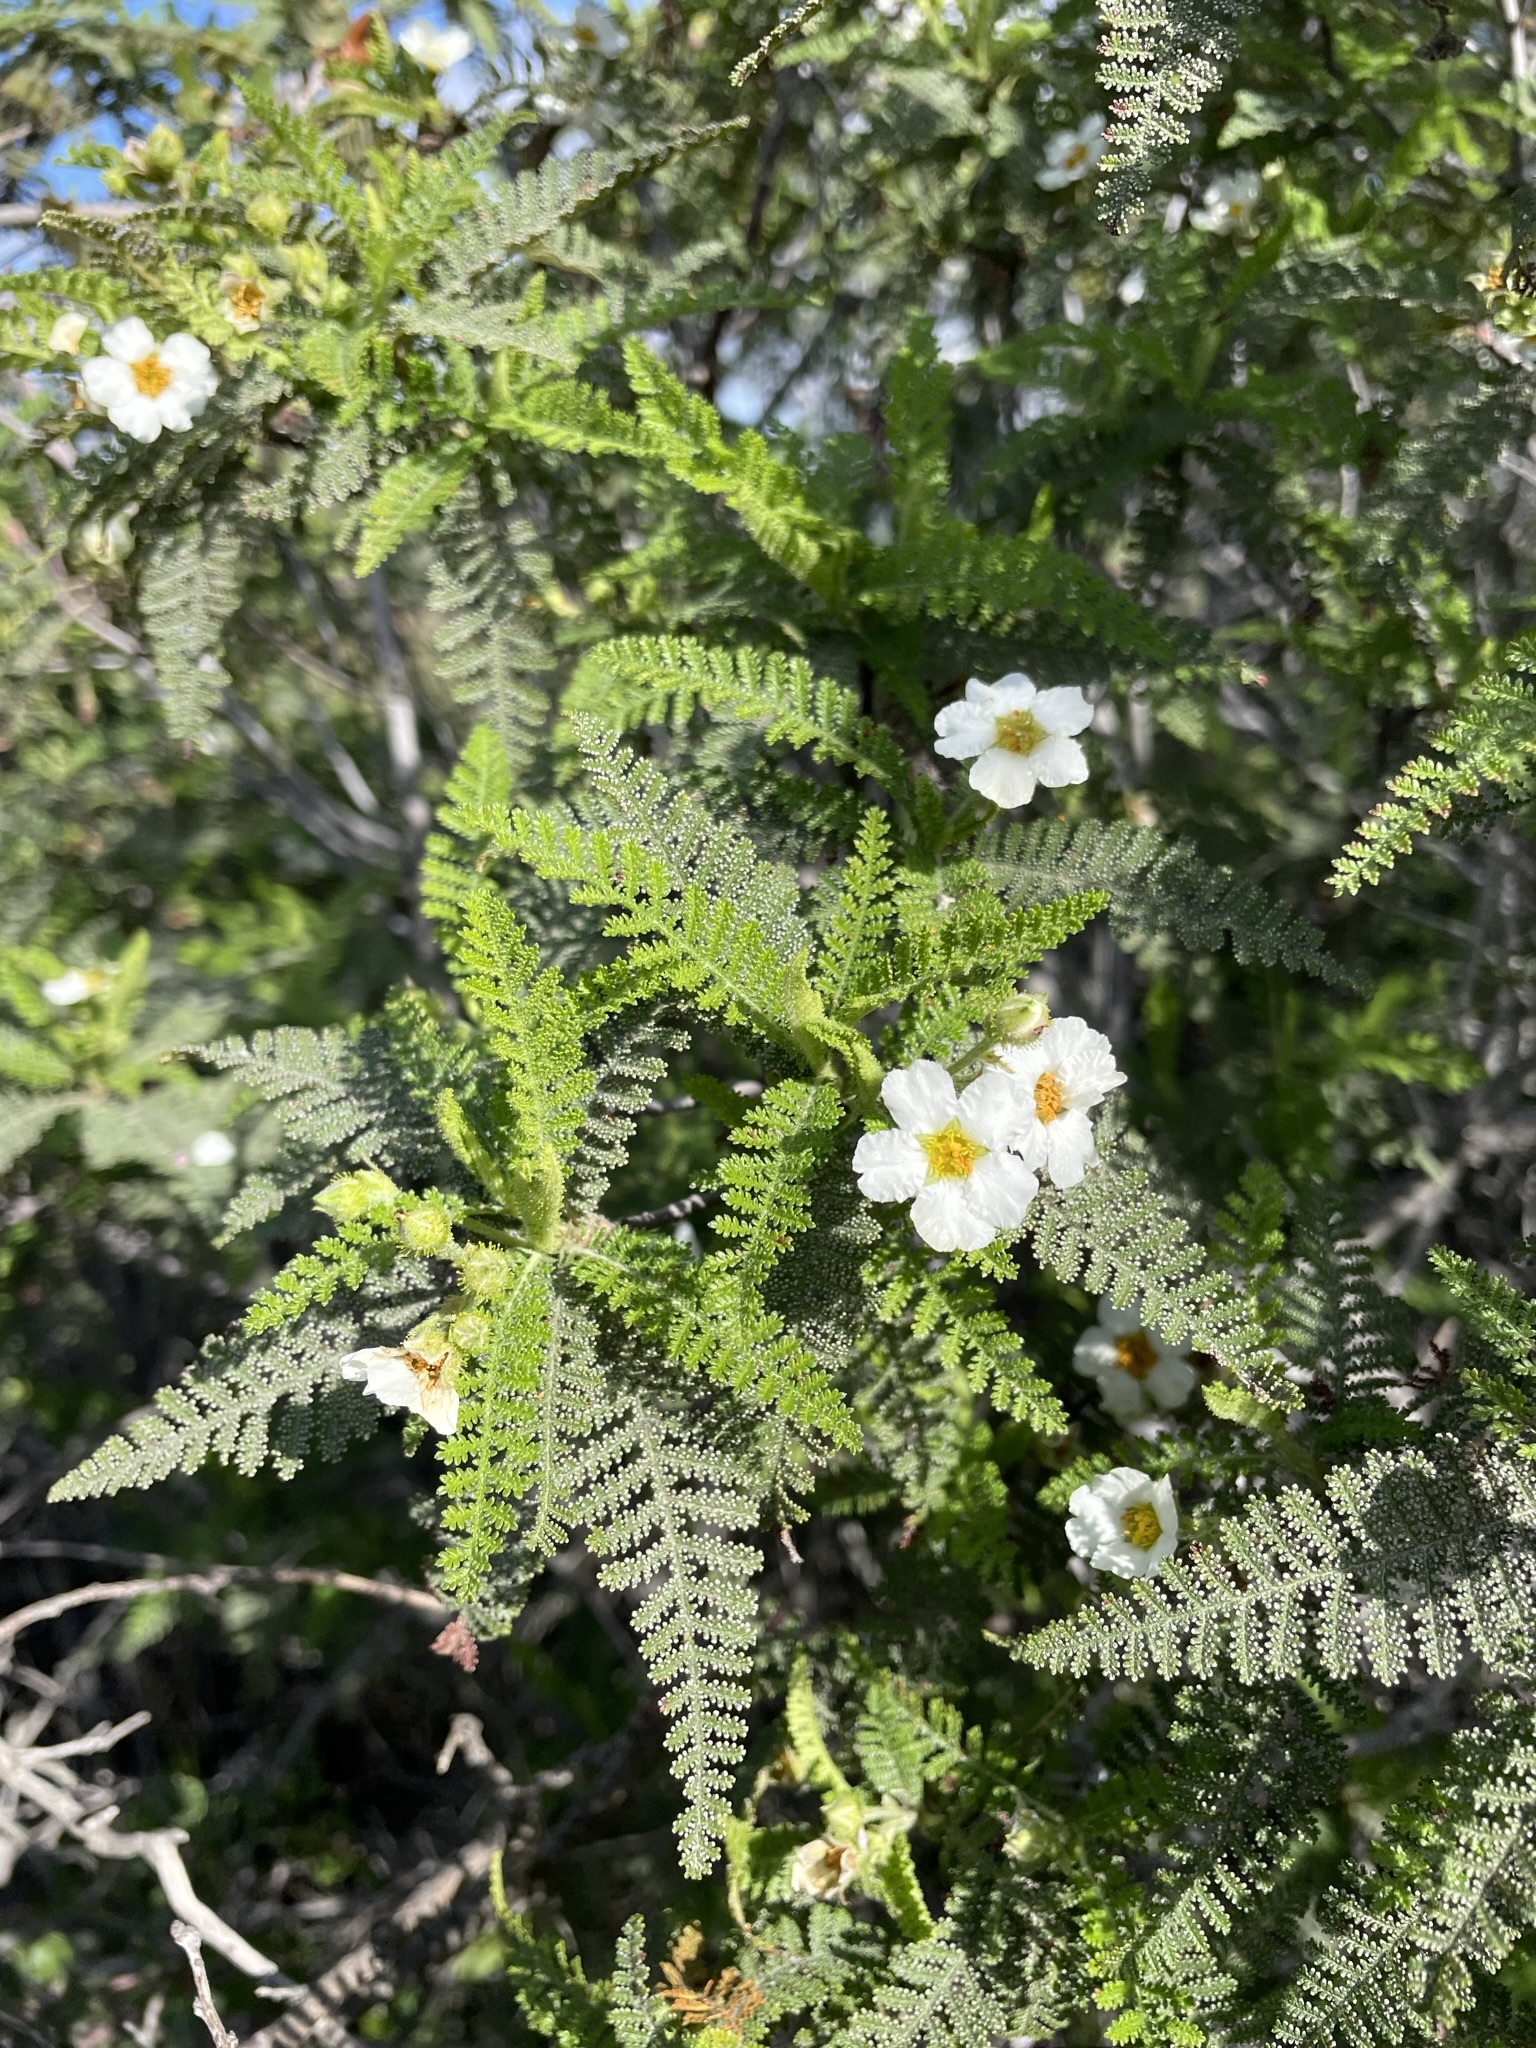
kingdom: Plantae
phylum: Tracheophyta
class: Magnoliopsida
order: Rosales
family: Rosaceae
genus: Chamaebatia
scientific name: Chamaebatia australis
